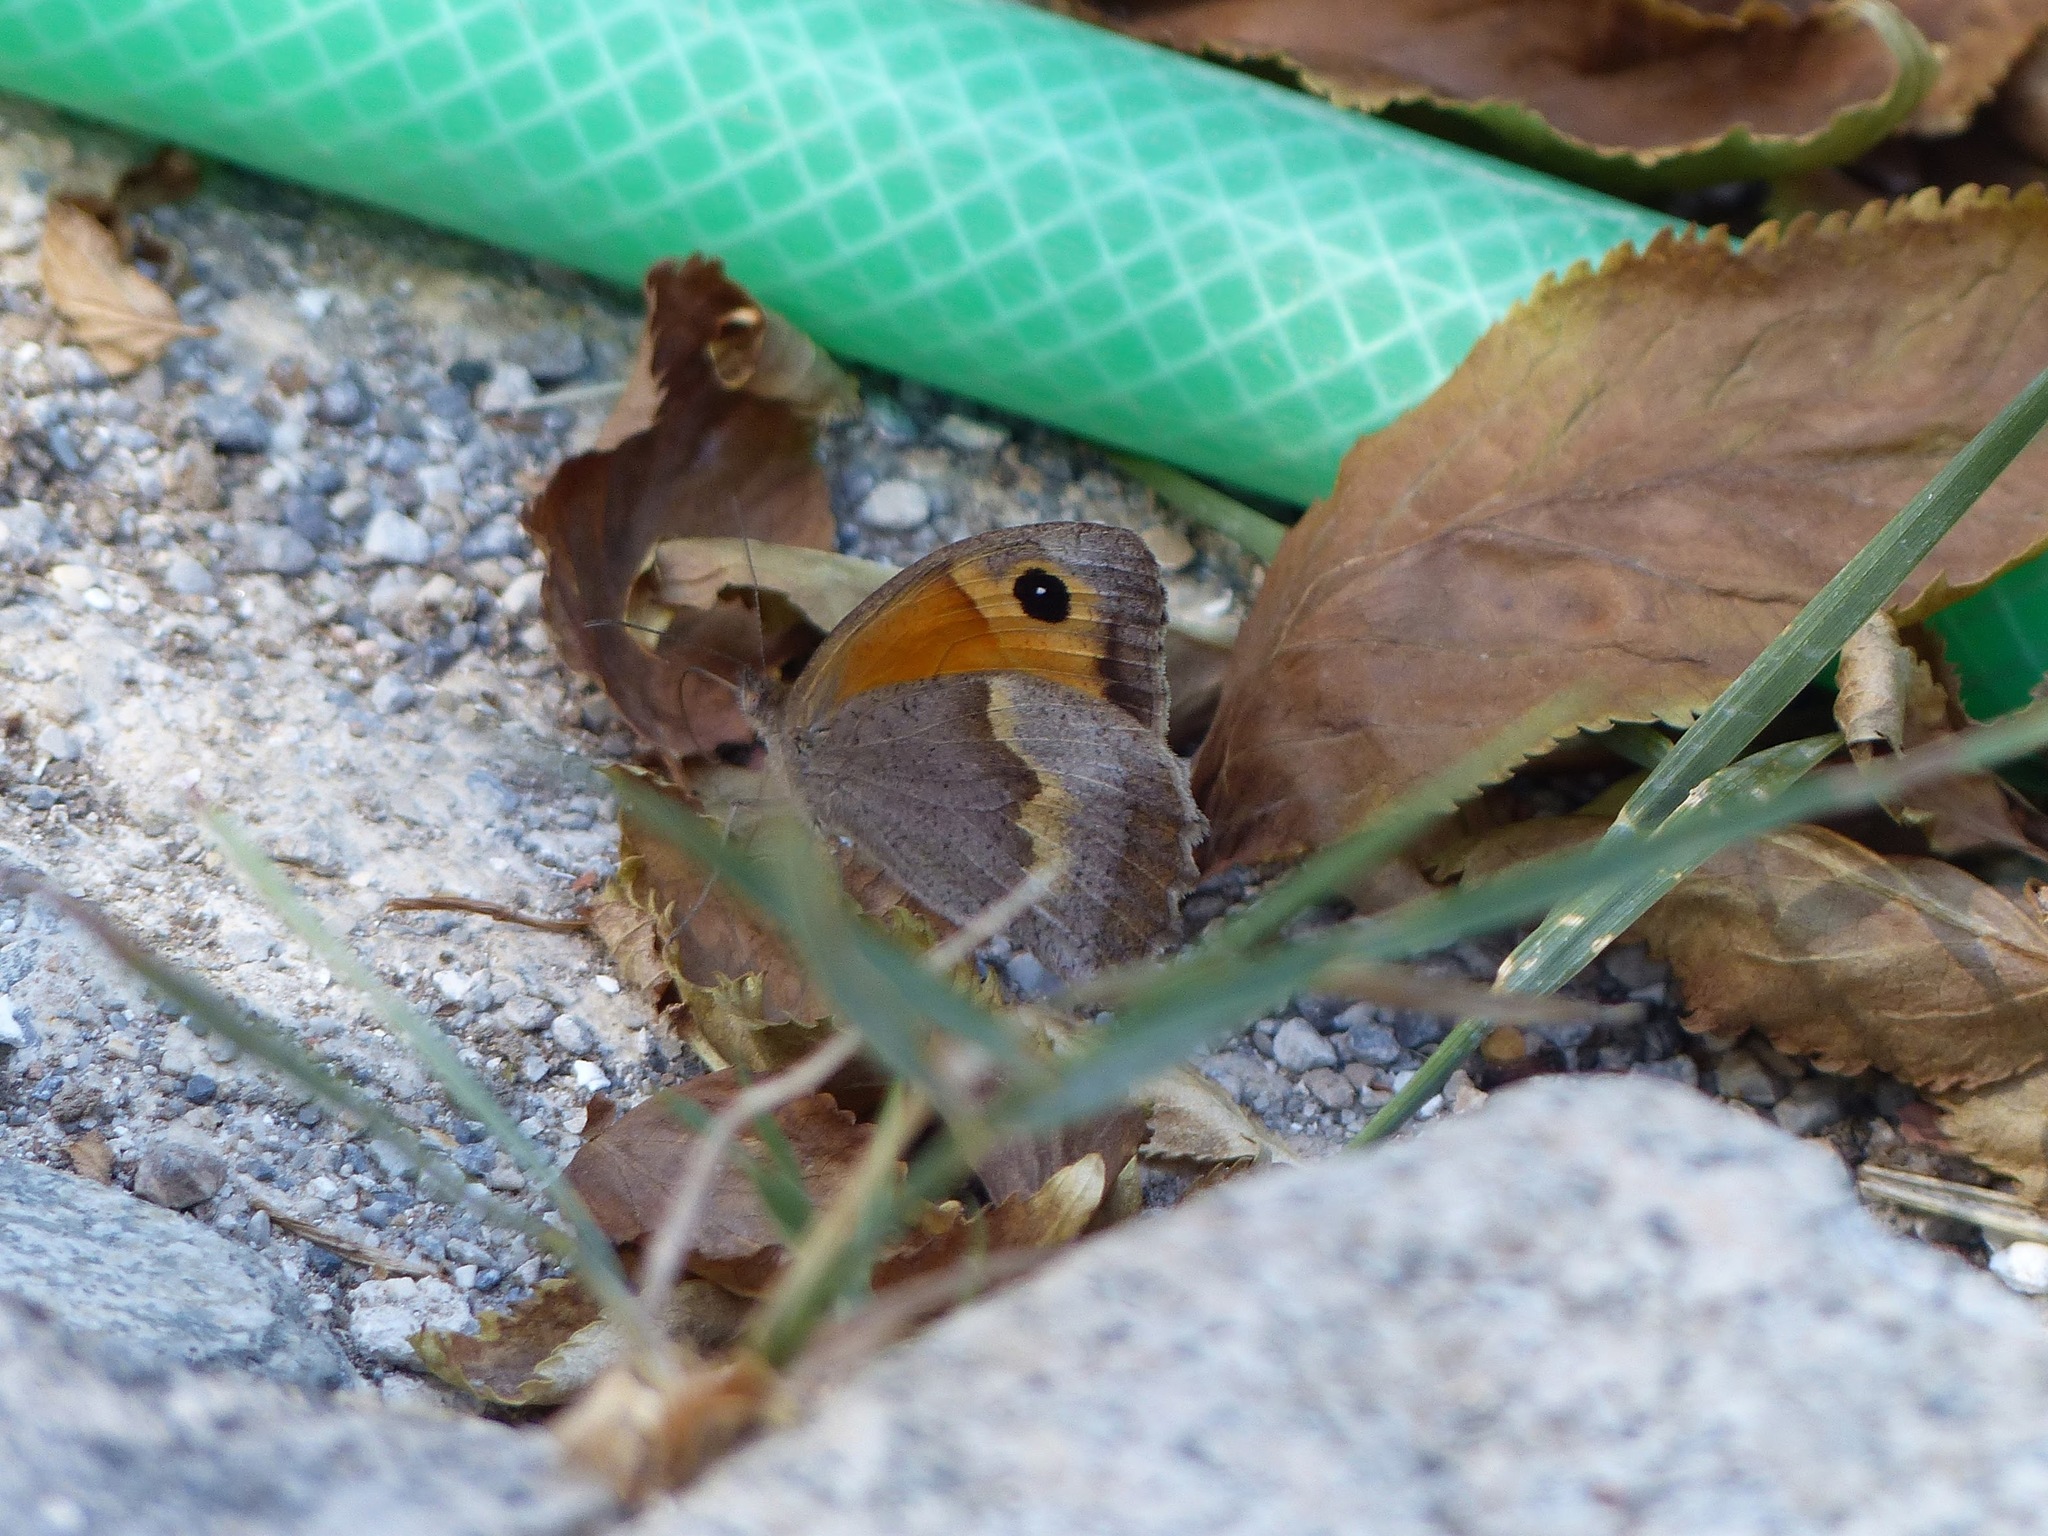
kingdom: Animalia
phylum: Arthropoda
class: Insecta
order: Lepidoptera
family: Nymphalidae
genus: Maniola
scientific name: Maniola jurtina
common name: Meadow brown
